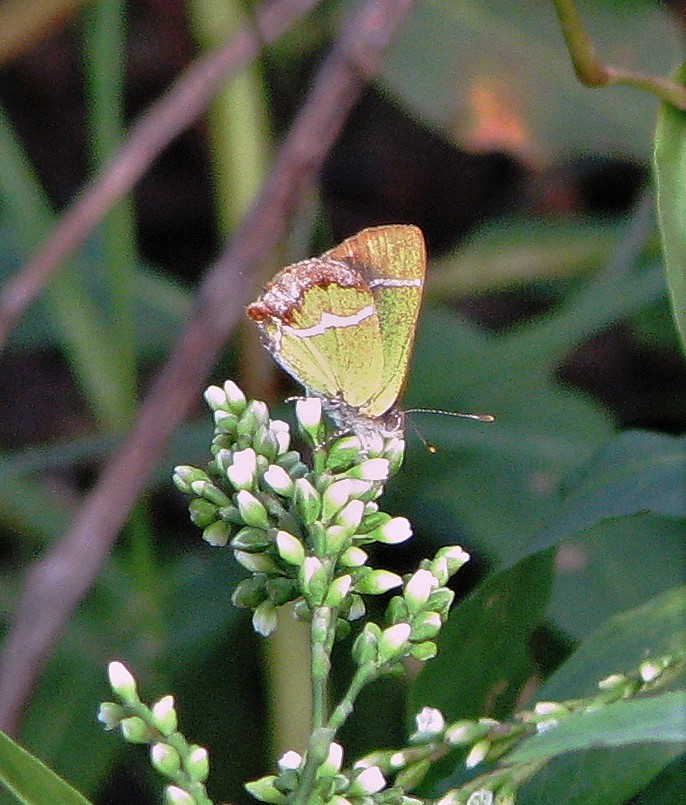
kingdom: Animalia
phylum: Arthropoda
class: Insecta
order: Lepidoptera
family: Lycaenidae
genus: Chlorostrymon
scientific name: Chlorostrymon simaethis
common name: Silver-banded hairstreak
